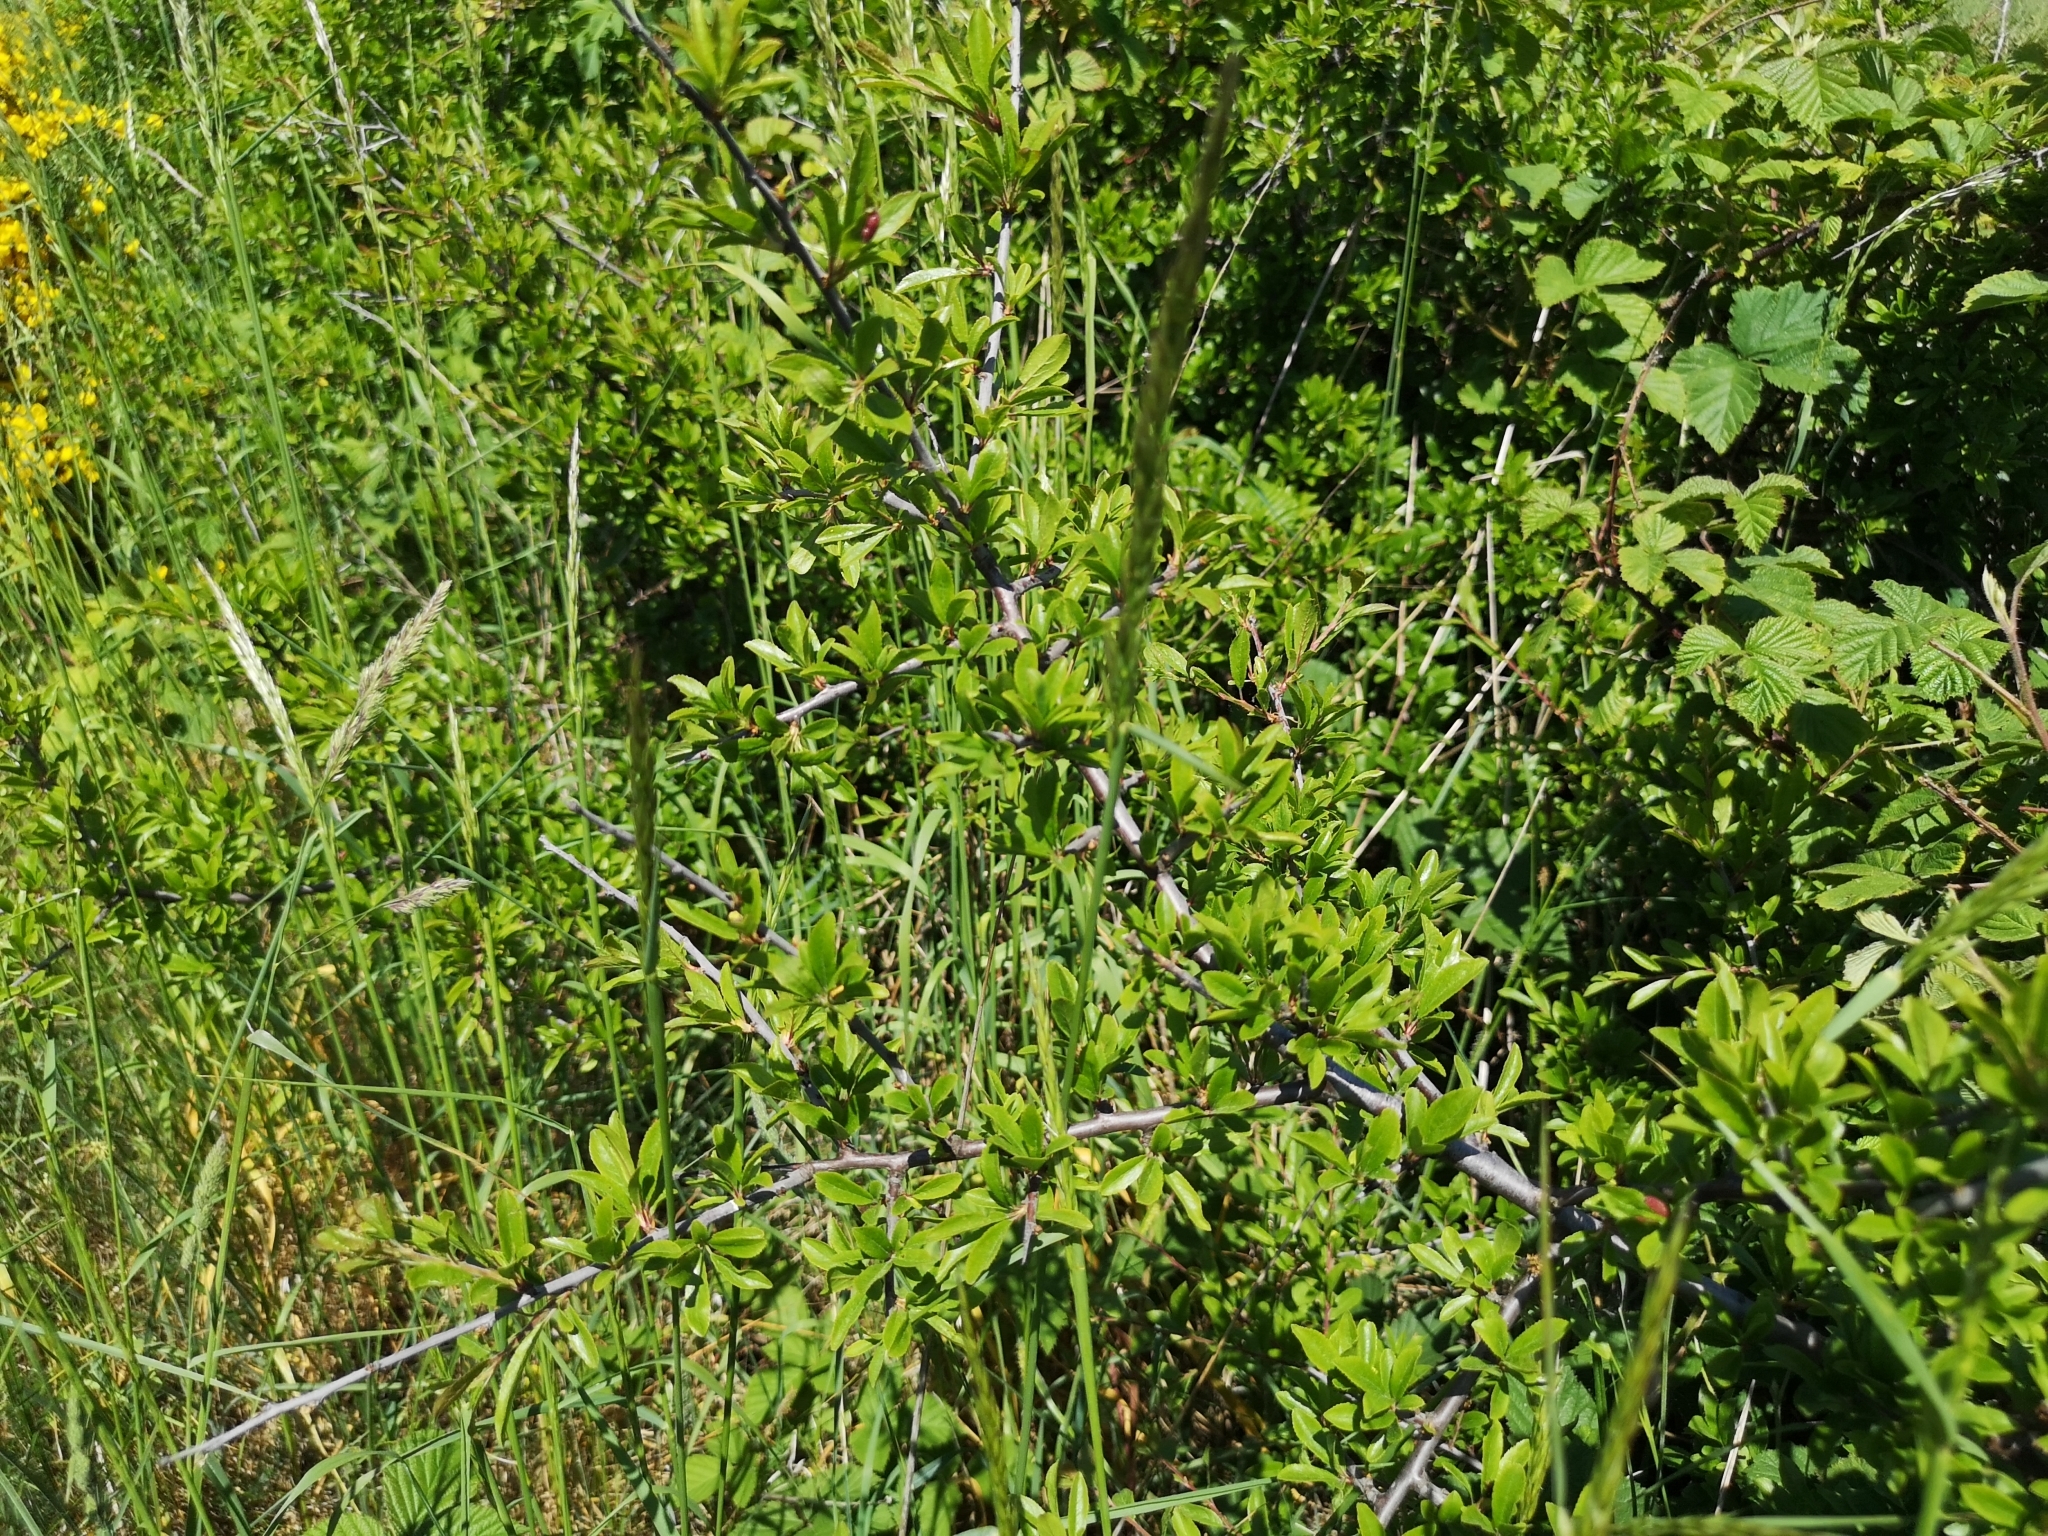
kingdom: Plantae
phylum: Tracheophyta
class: Magnoliopsida
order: Rosales
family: Rosaceae
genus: Prunus
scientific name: Prunus spinosa
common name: Blackthorn
